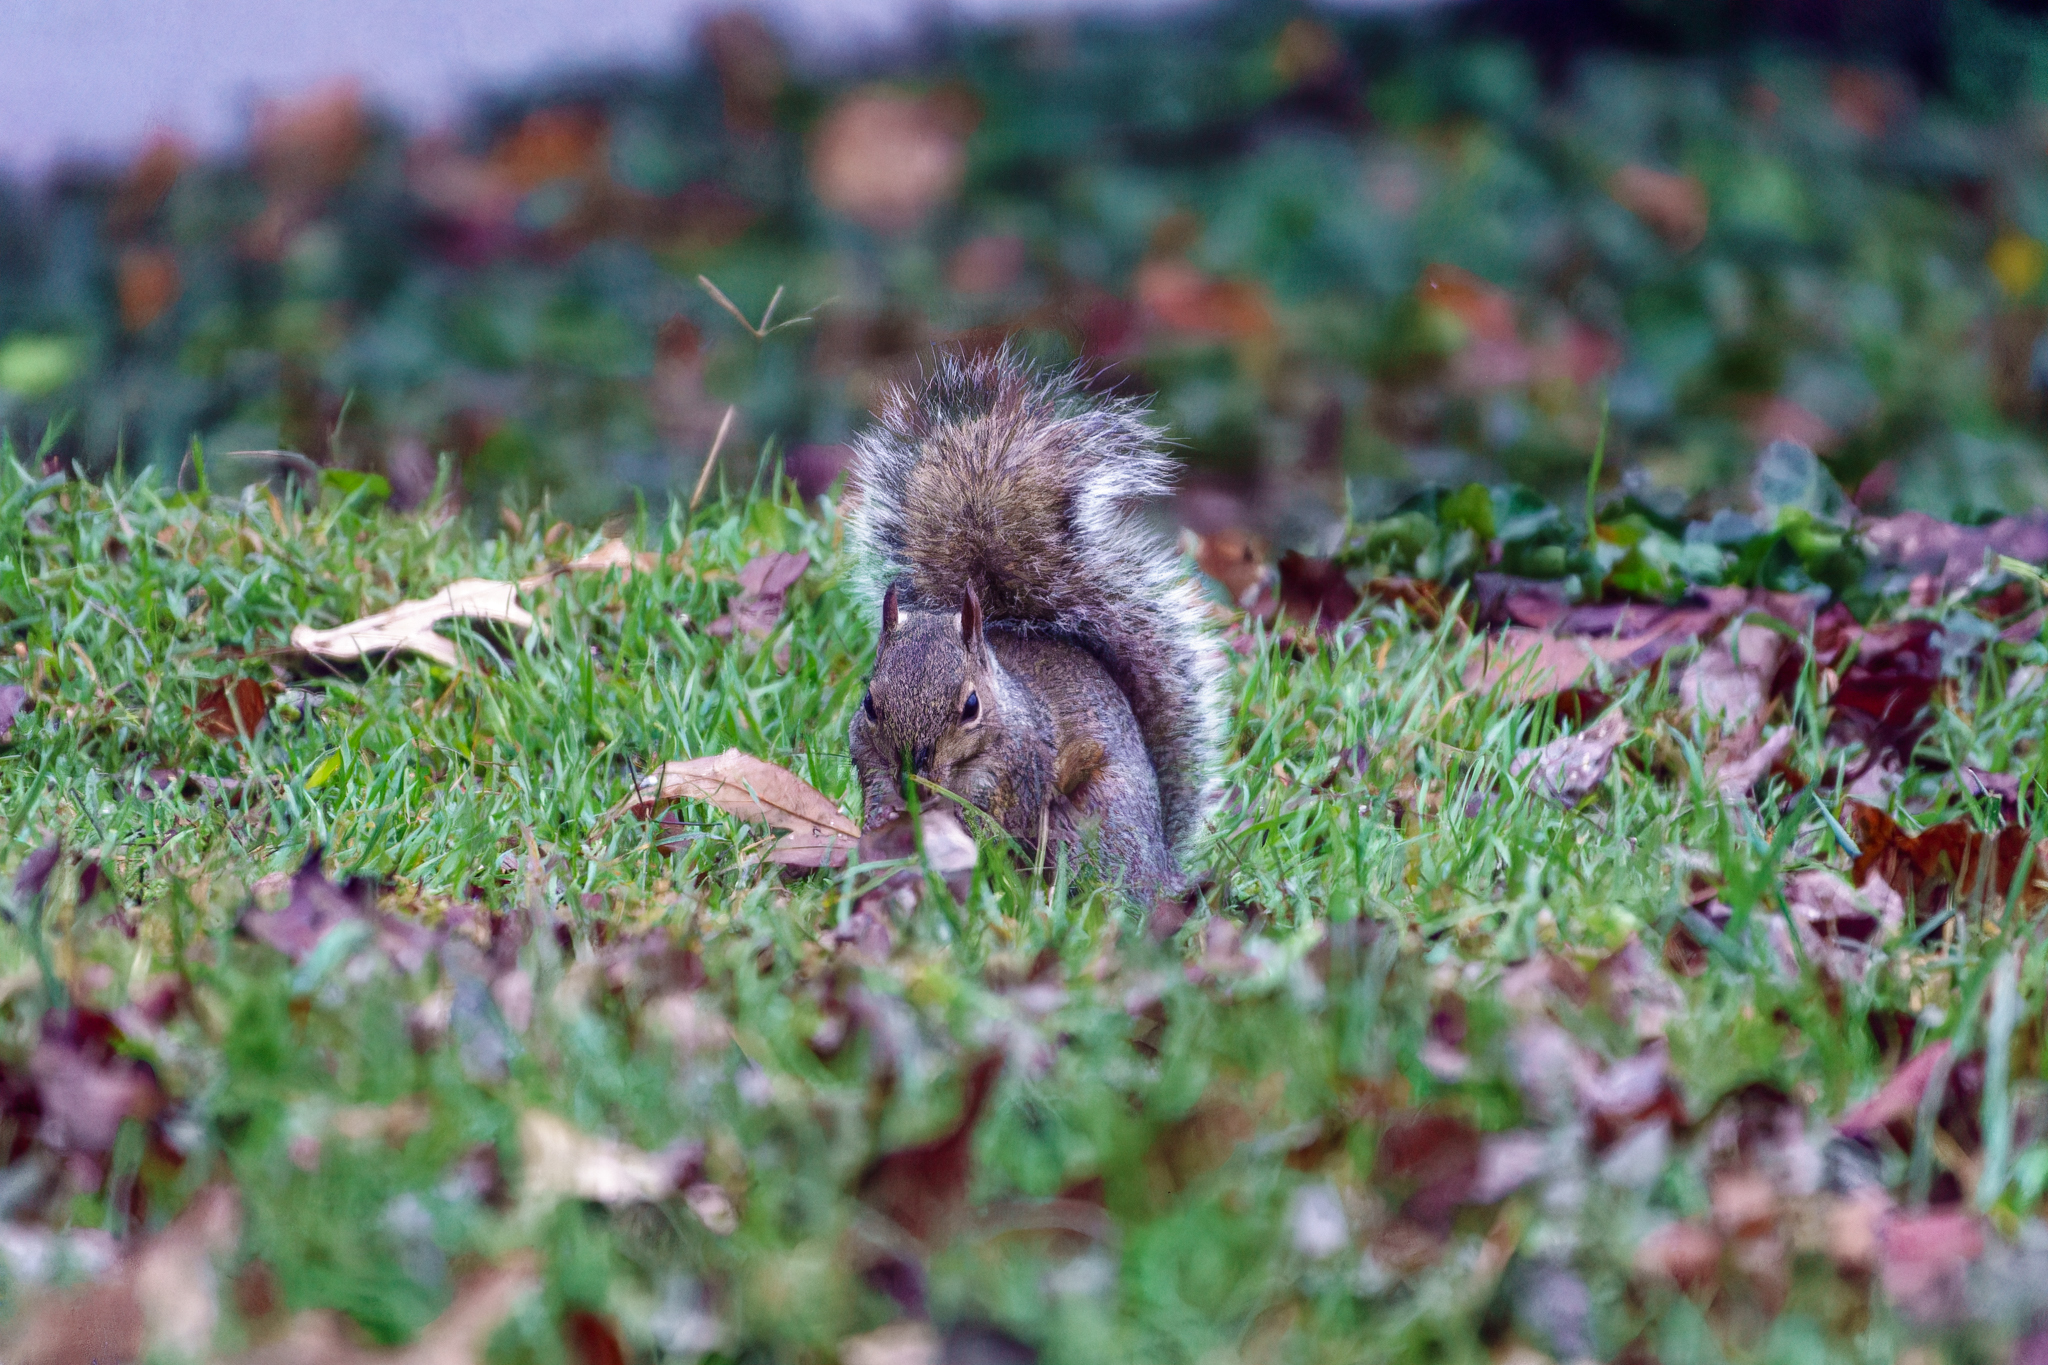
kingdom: Animalia
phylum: Chordata
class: Mammalia
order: Rodentia
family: Sciuridae
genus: Sciurus
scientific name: Sciurus carolinensis
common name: Eastern gray squirrel
